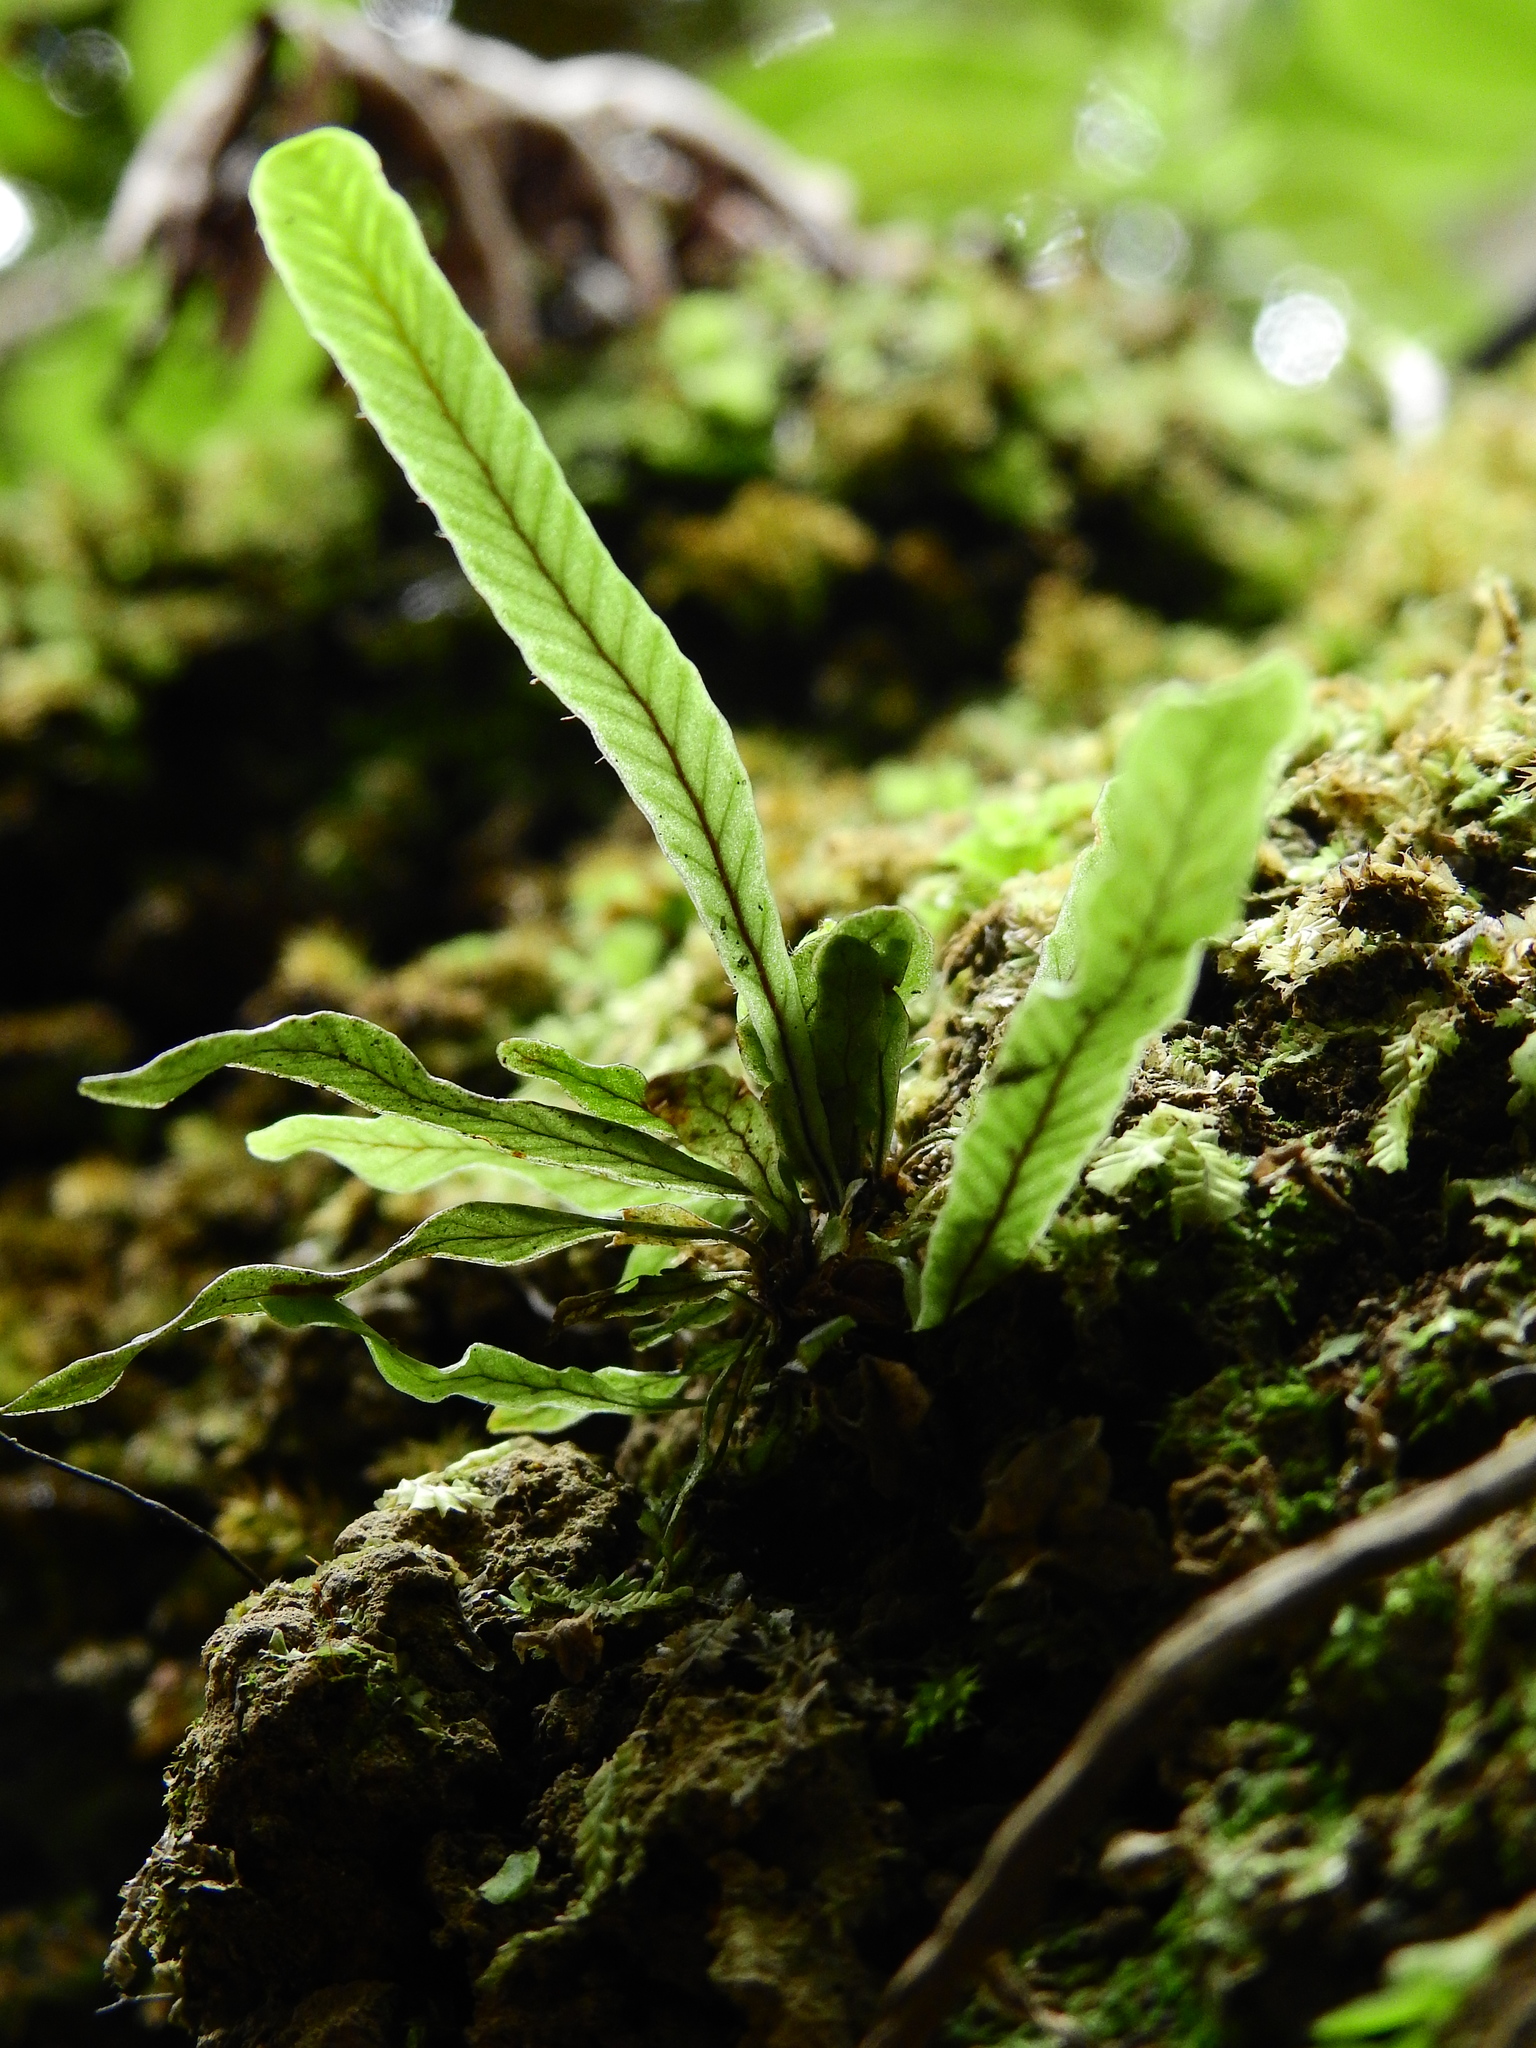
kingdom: Plantae
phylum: Tracheophyta
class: Polypodiopsida
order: Polypodiales
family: Polypodiaceae
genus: Notogrammitis
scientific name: Notogrammitis billardierei
